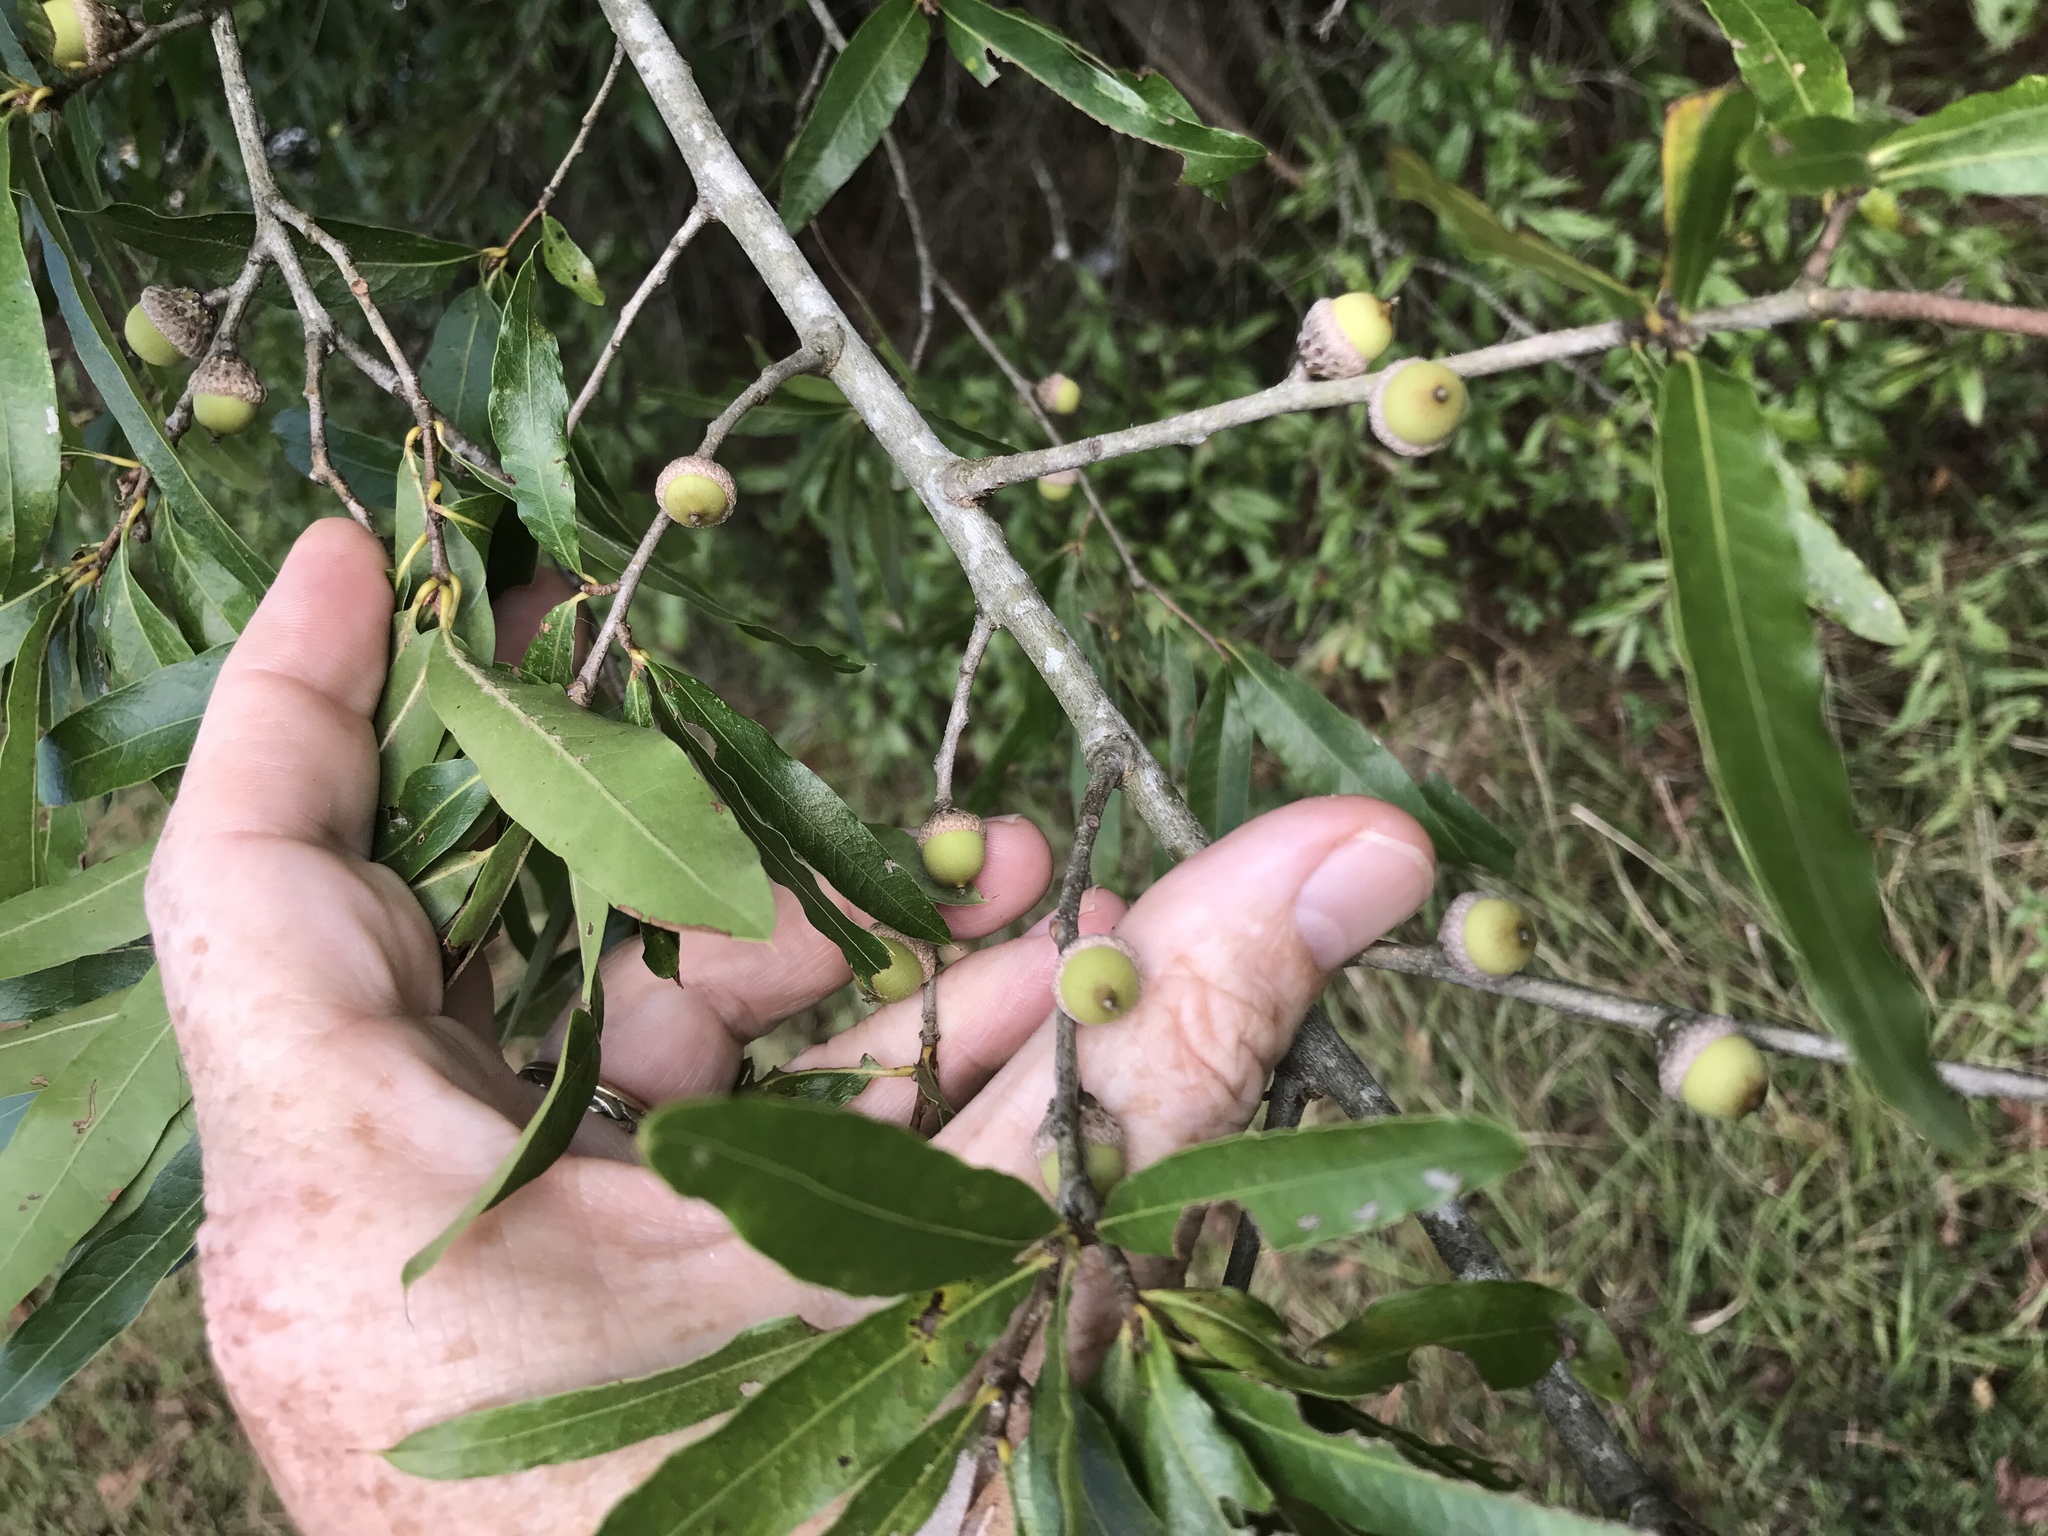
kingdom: Plantae
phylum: Tracheophyta
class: Magnoliopsida
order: Fagales
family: Fagaceae
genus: Quercus
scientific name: Quercus phellos
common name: Willow oak
